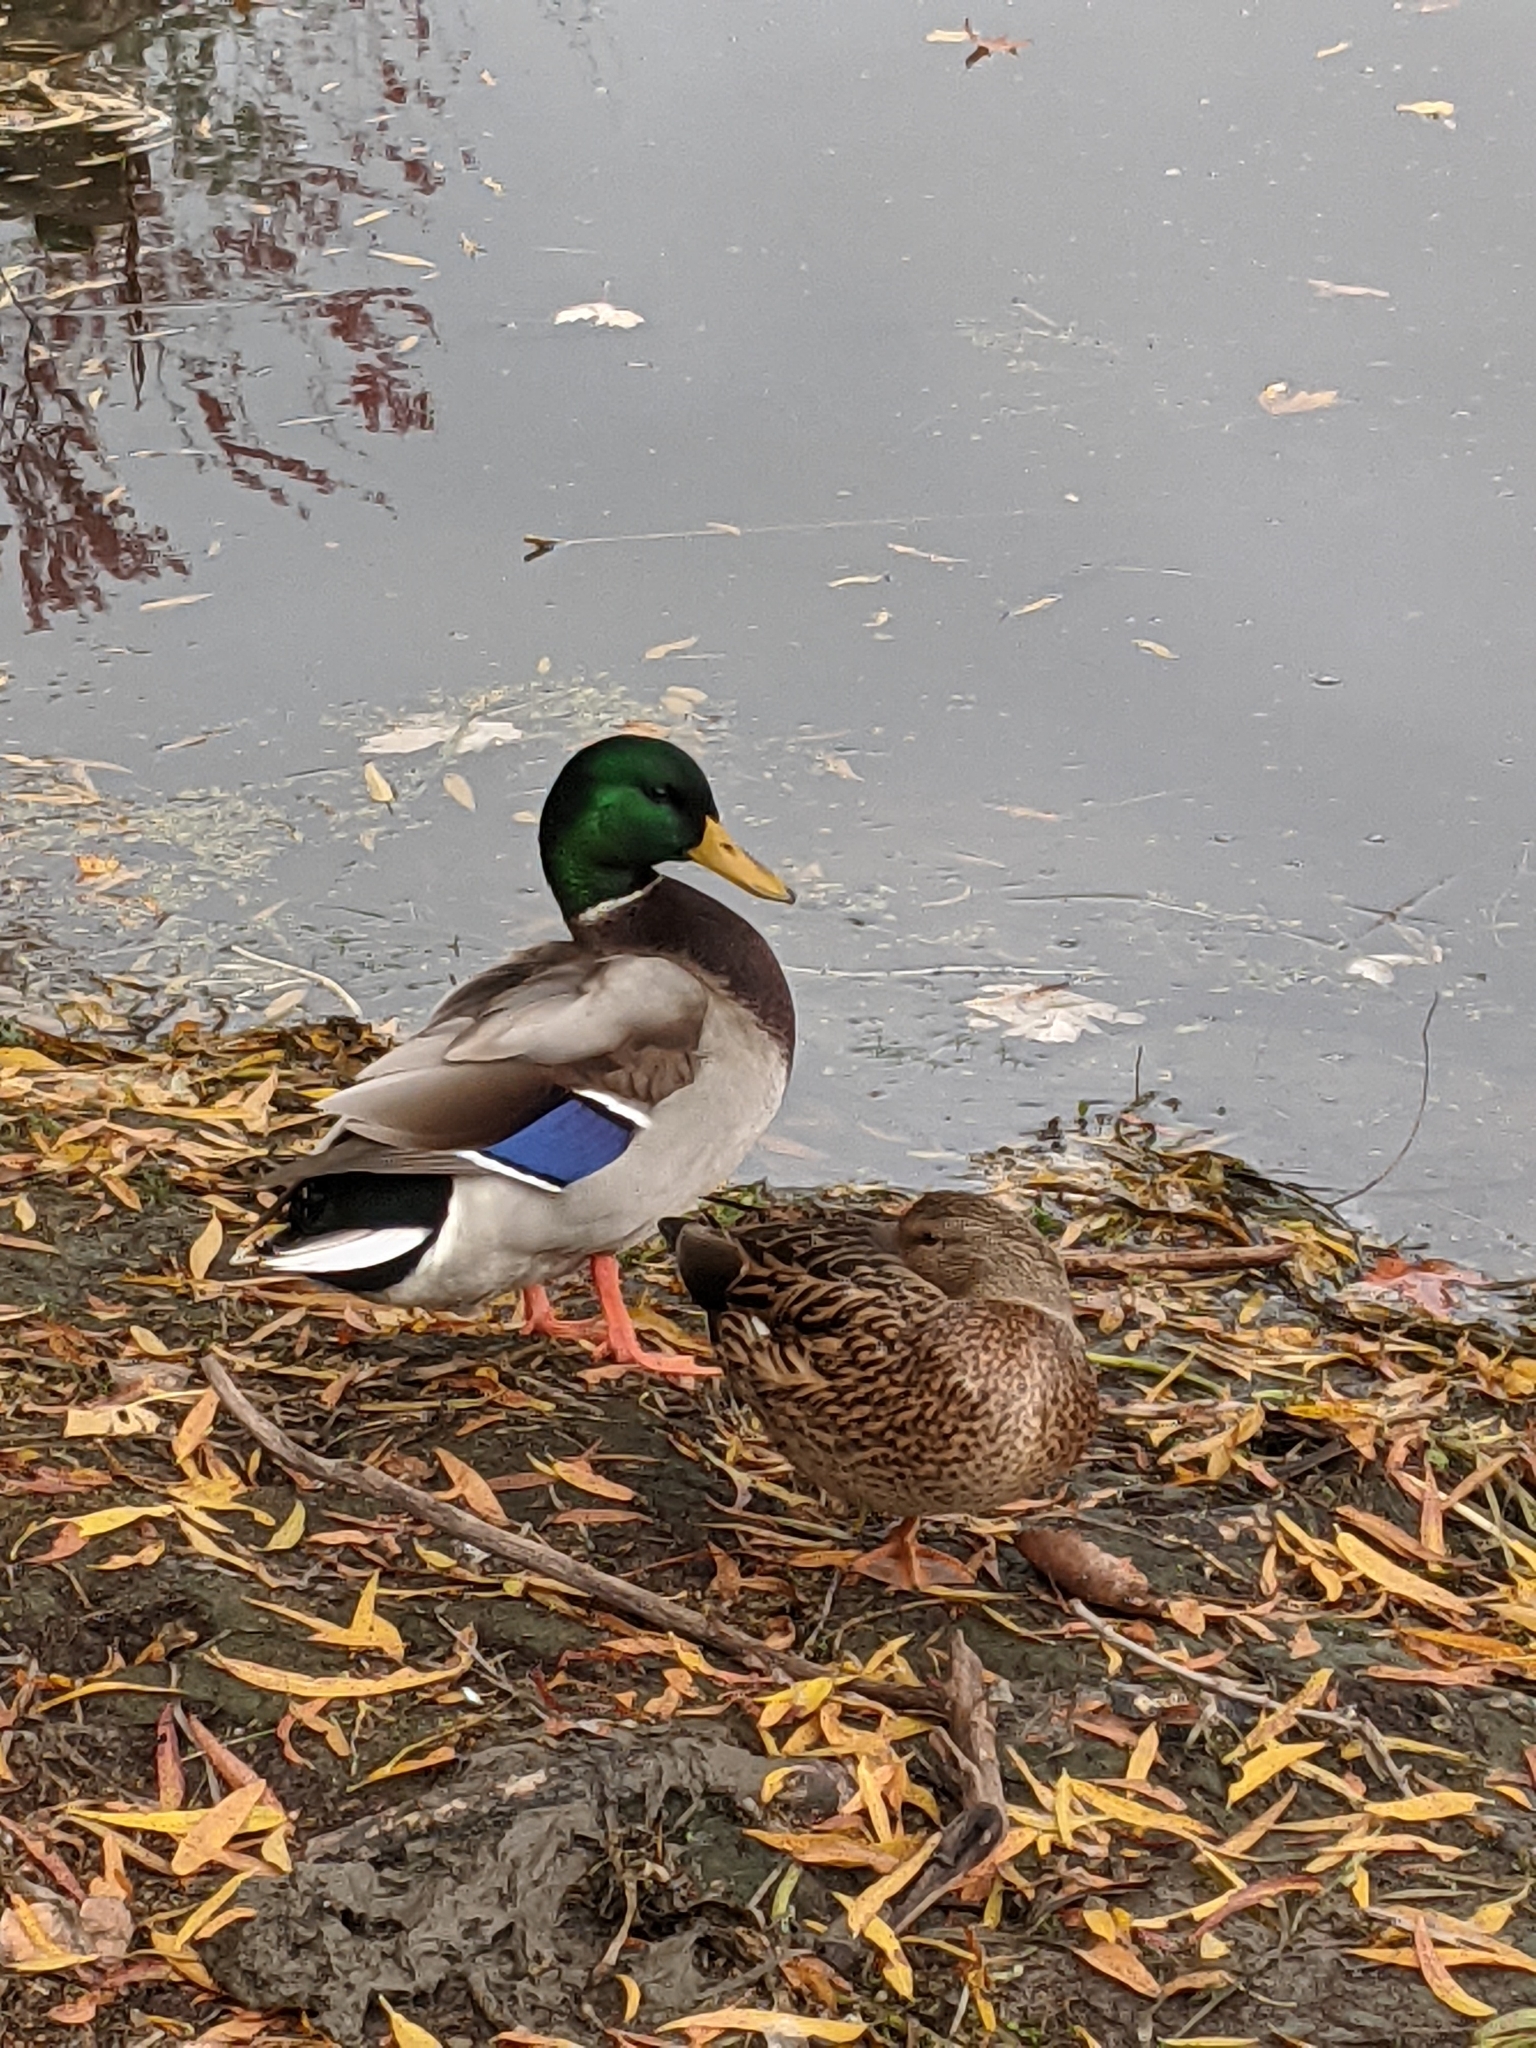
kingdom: Animalia
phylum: Chordata
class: Aves
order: Anseriformes
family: Anatidae
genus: Anas
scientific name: Anas platyrhynchos
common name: Mallard
